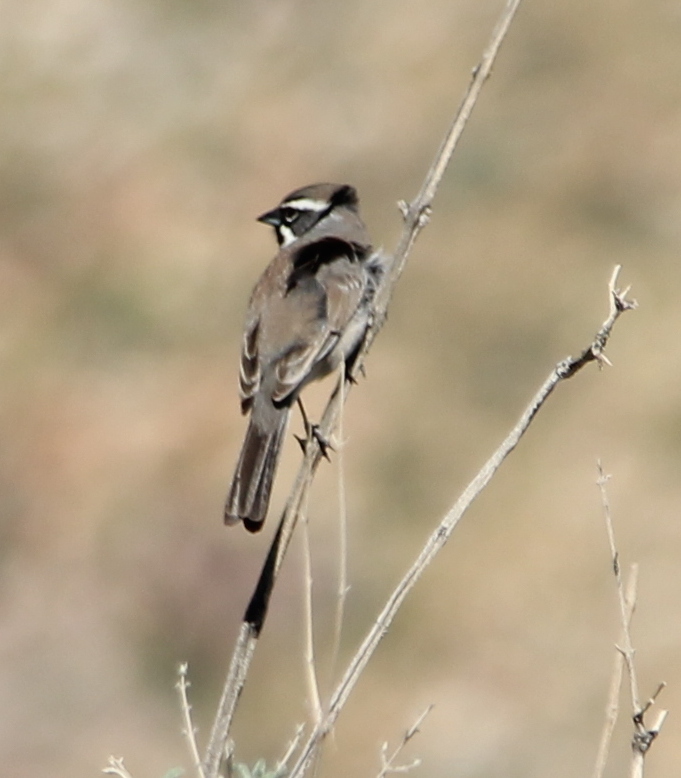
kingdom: Animalia
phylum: Chordata
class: Aves
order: Passeriformes
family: Passerellidae
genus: Amphispiza
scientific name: Amphispiza bilineata
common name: Black-throated sparrow
